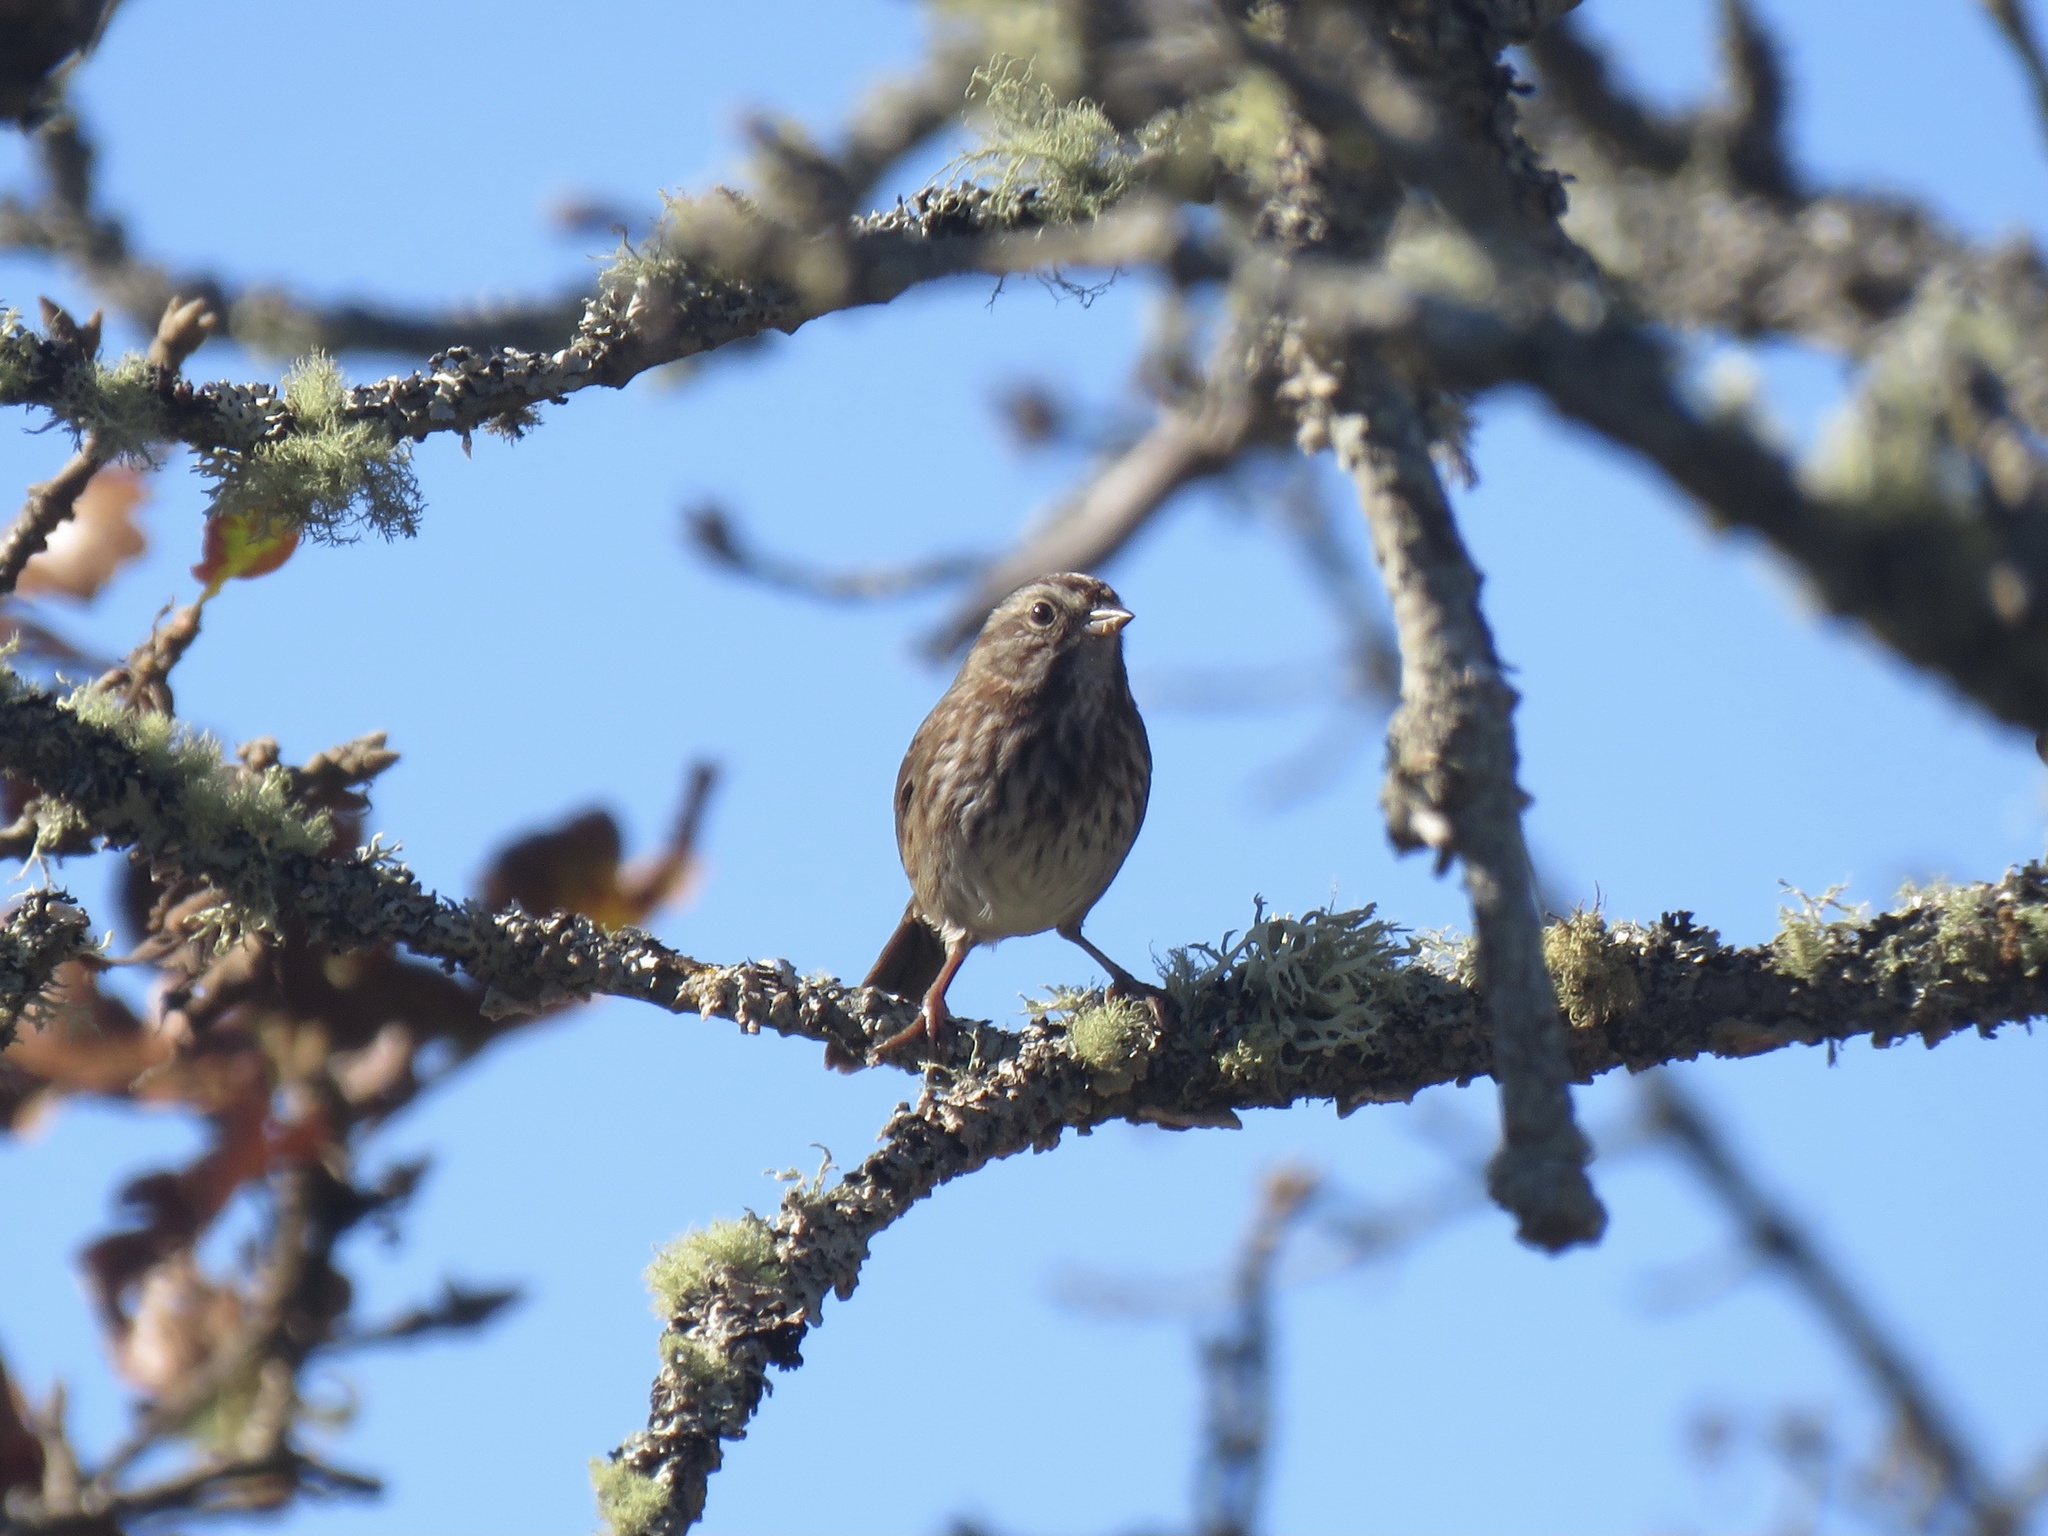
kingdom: Animalia
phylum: Chordata
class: Aves
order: Passeriformes
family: Passerellidae
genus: Melospiza
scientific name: Melospiza melodia
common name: Song sparrow
